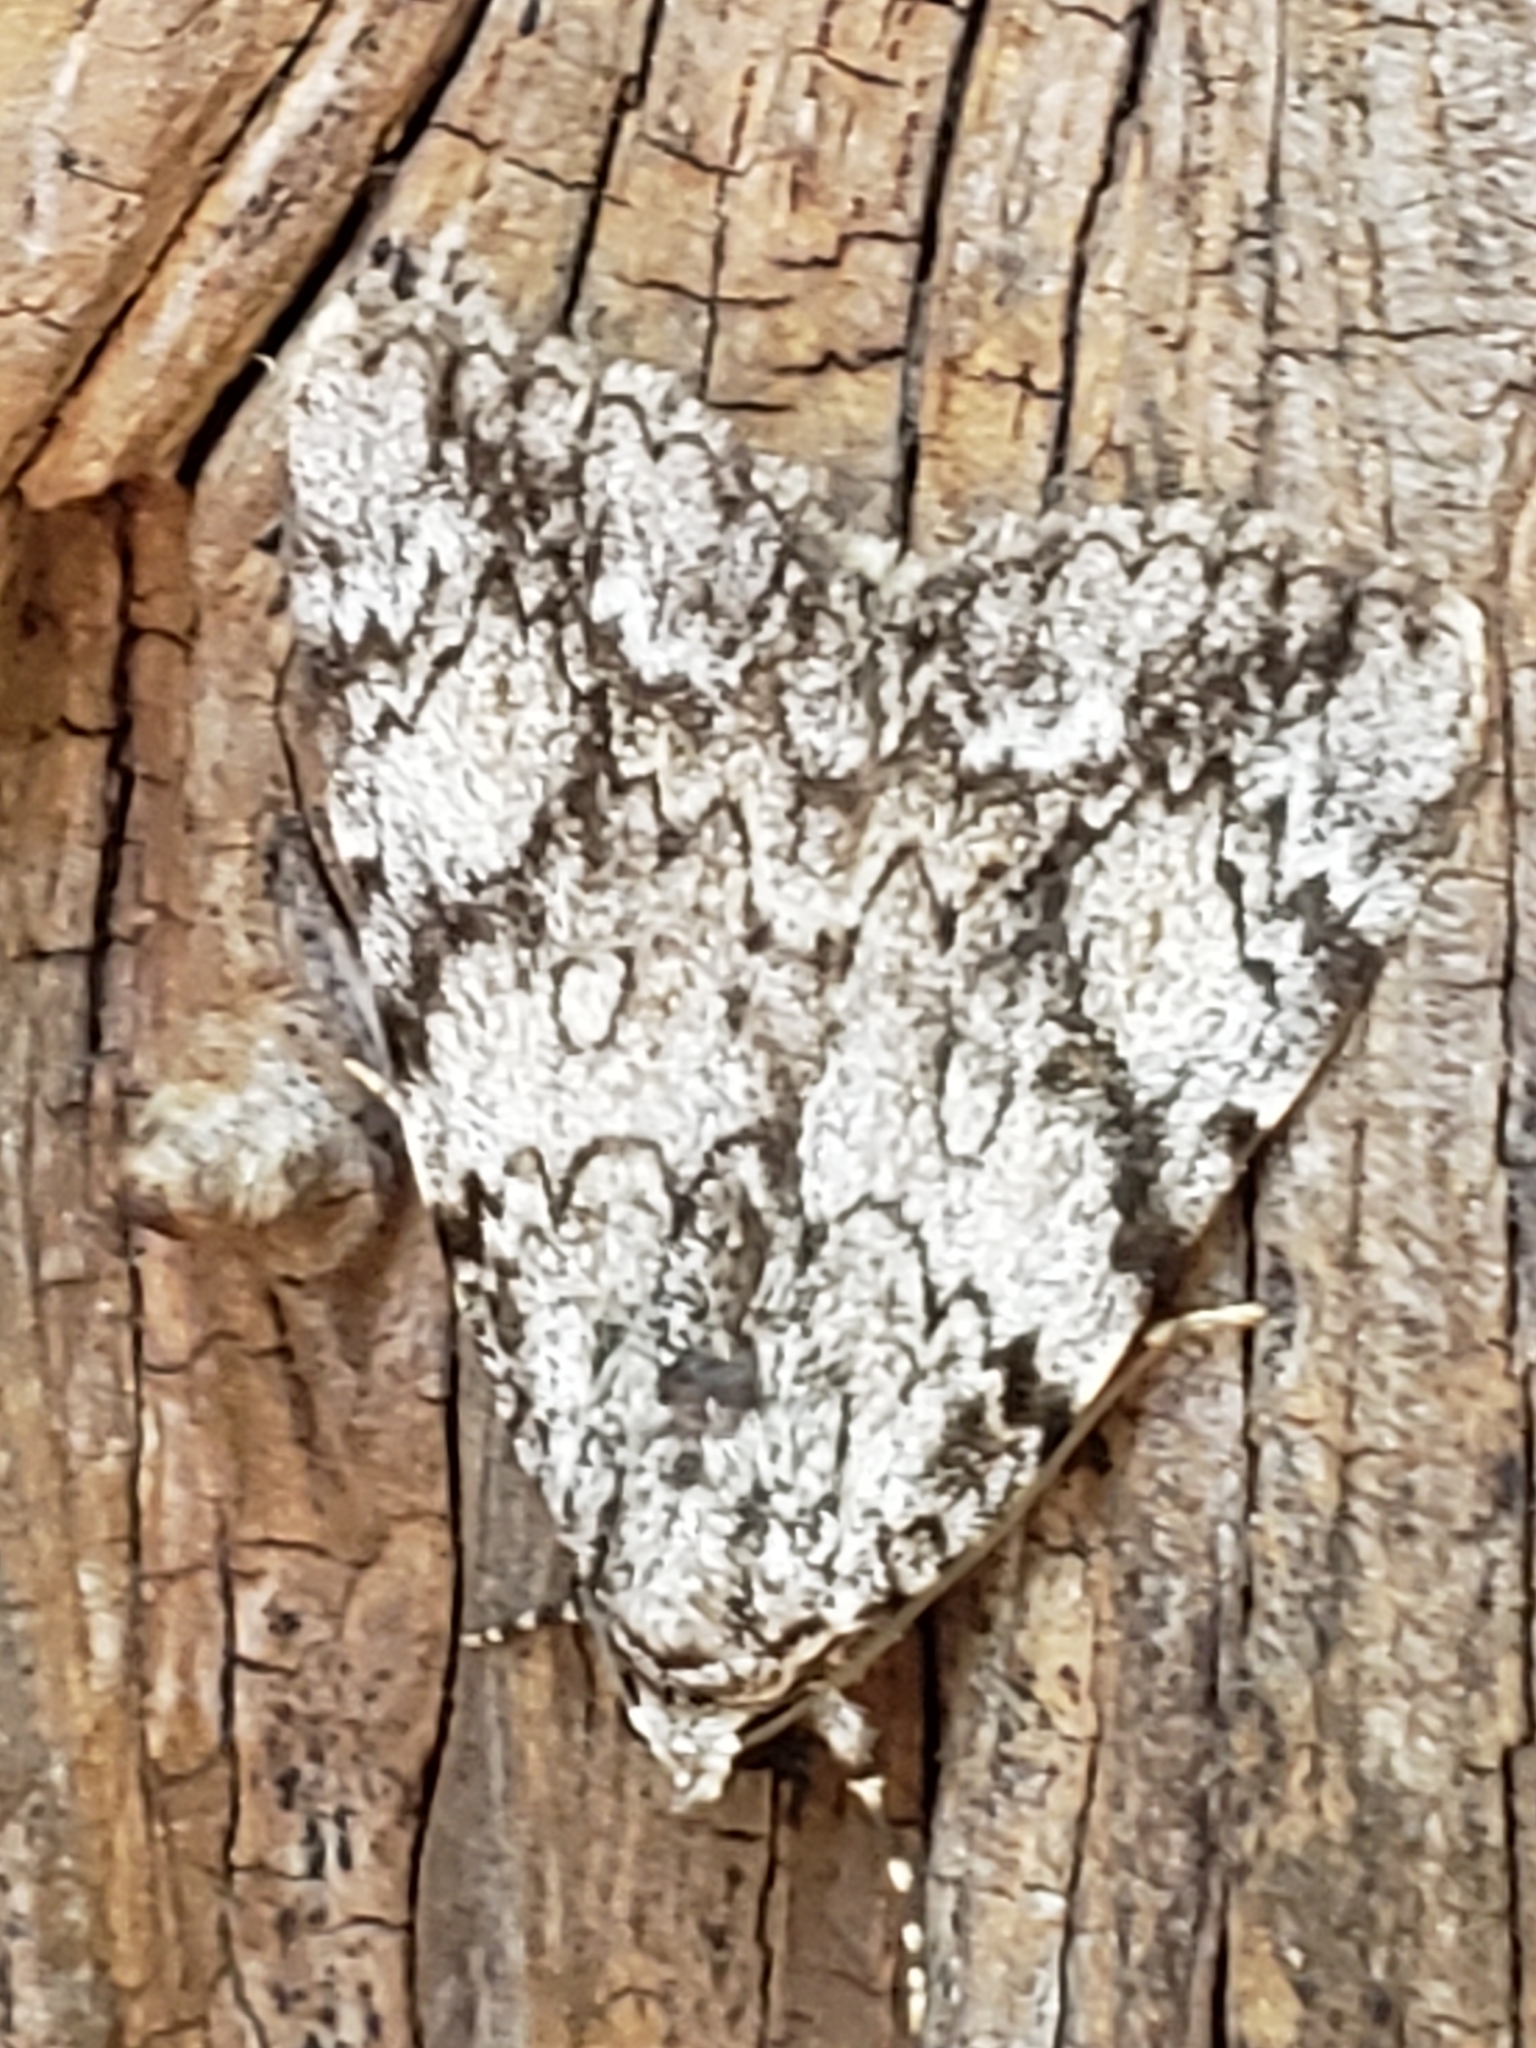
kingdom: Animalia
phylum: Arthropoda
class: Insecta
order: Lepidoptera
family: Erebidae
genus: Catocala
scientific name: Catocala amica
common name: Girlfriend underwing
